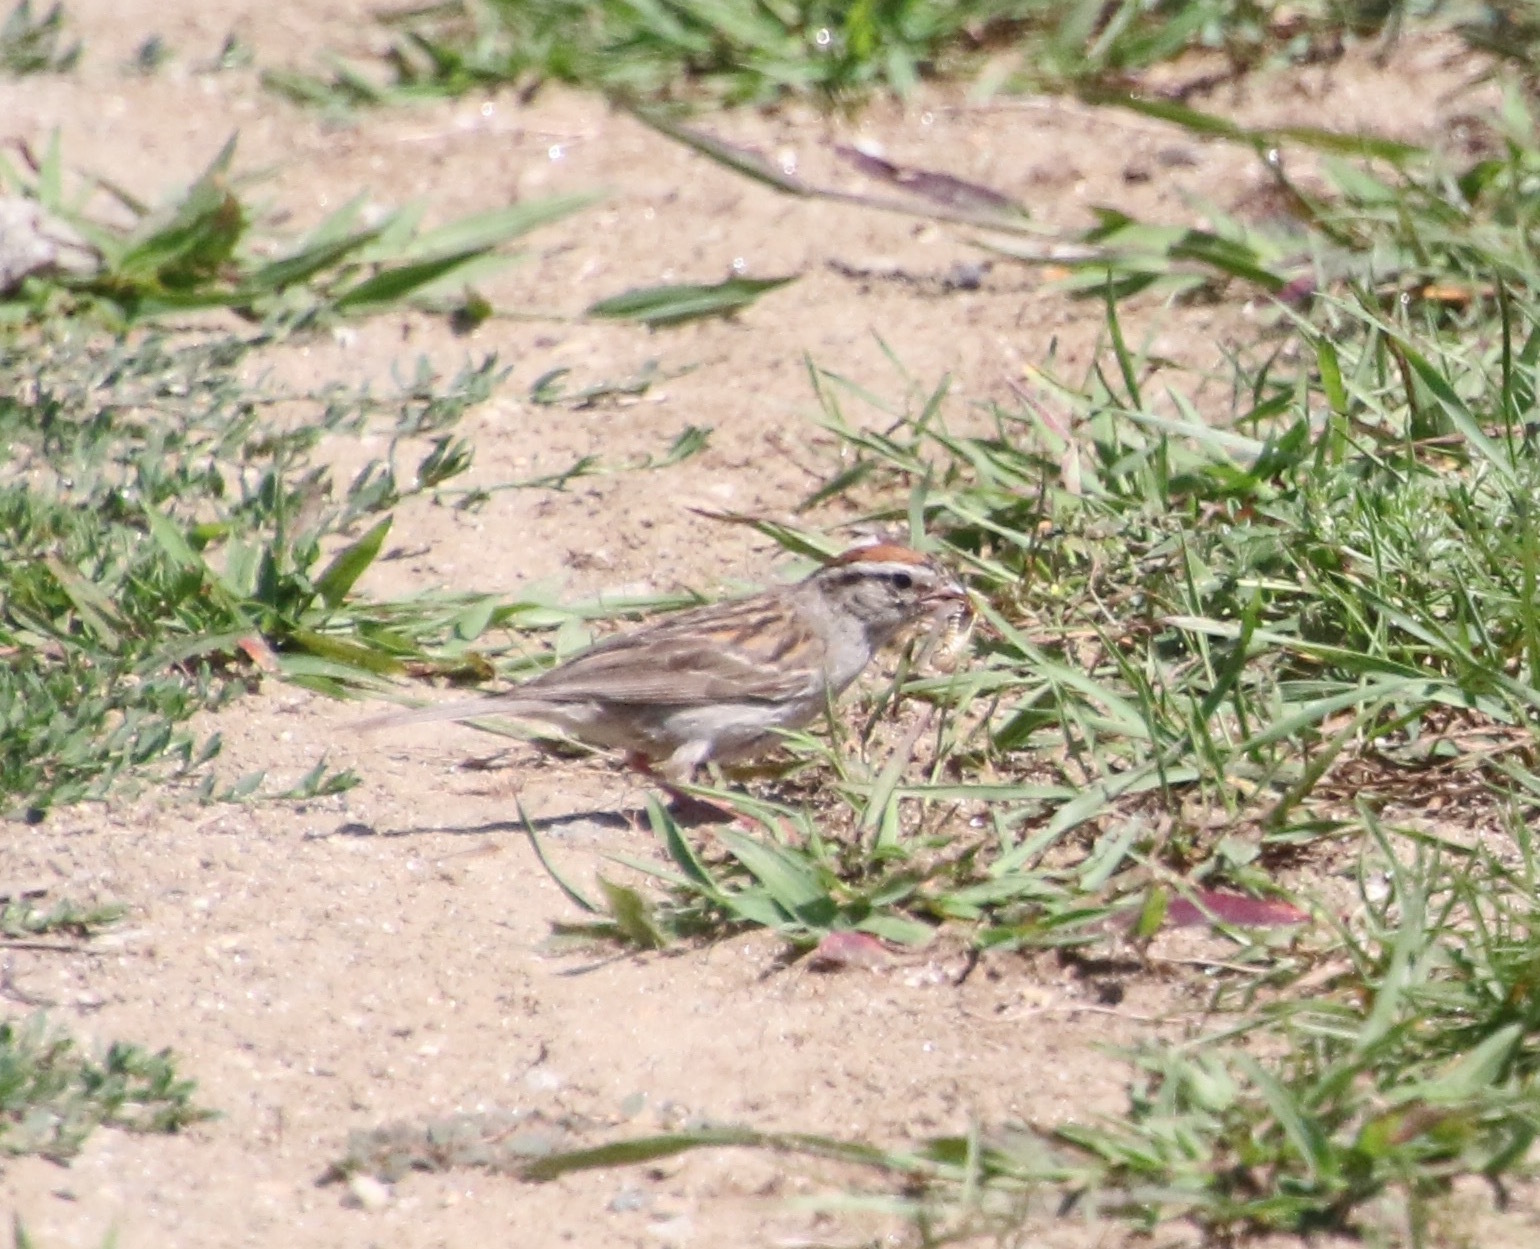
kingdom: Animalia
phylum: Chordata
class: Aves
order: Passeriformes
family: Passerellidae
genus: Spizella
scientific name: Spizella passerina
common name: Chipping sparrow
